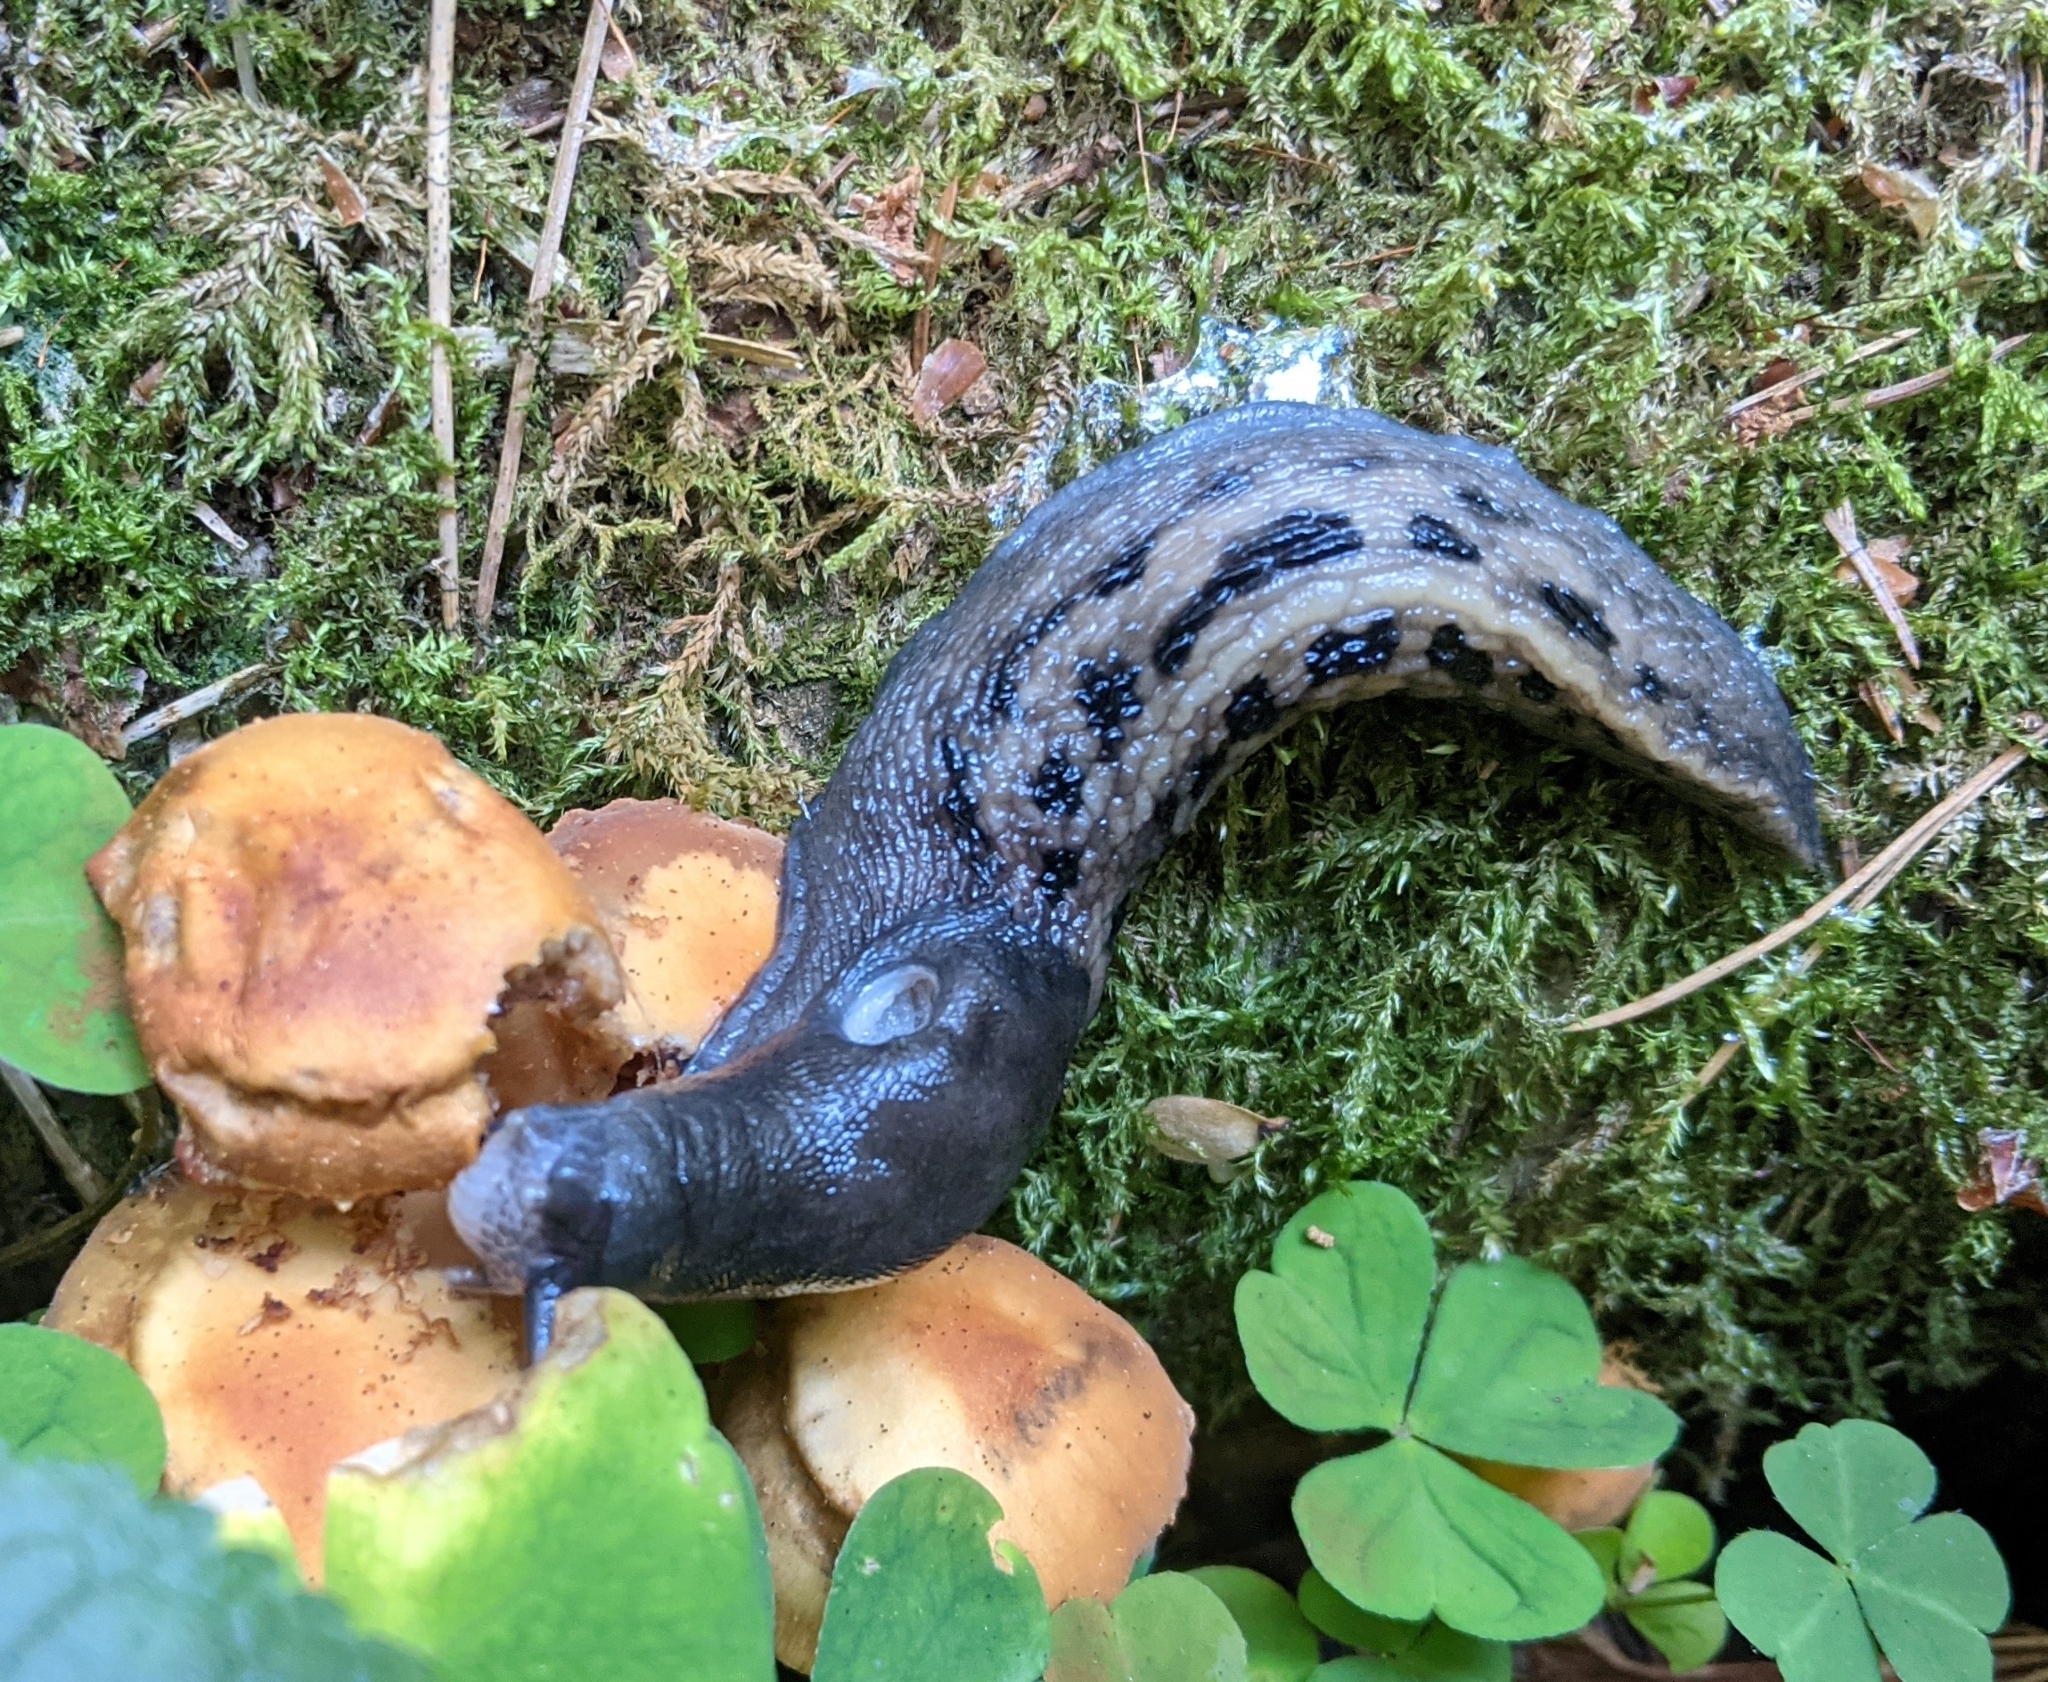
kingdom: Animalia
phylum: Mollusca
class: Gastropoda
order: Stylommatophora
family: Limacidae
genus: Limax
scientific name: Limax cinereoniger
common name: Ash-black slug
